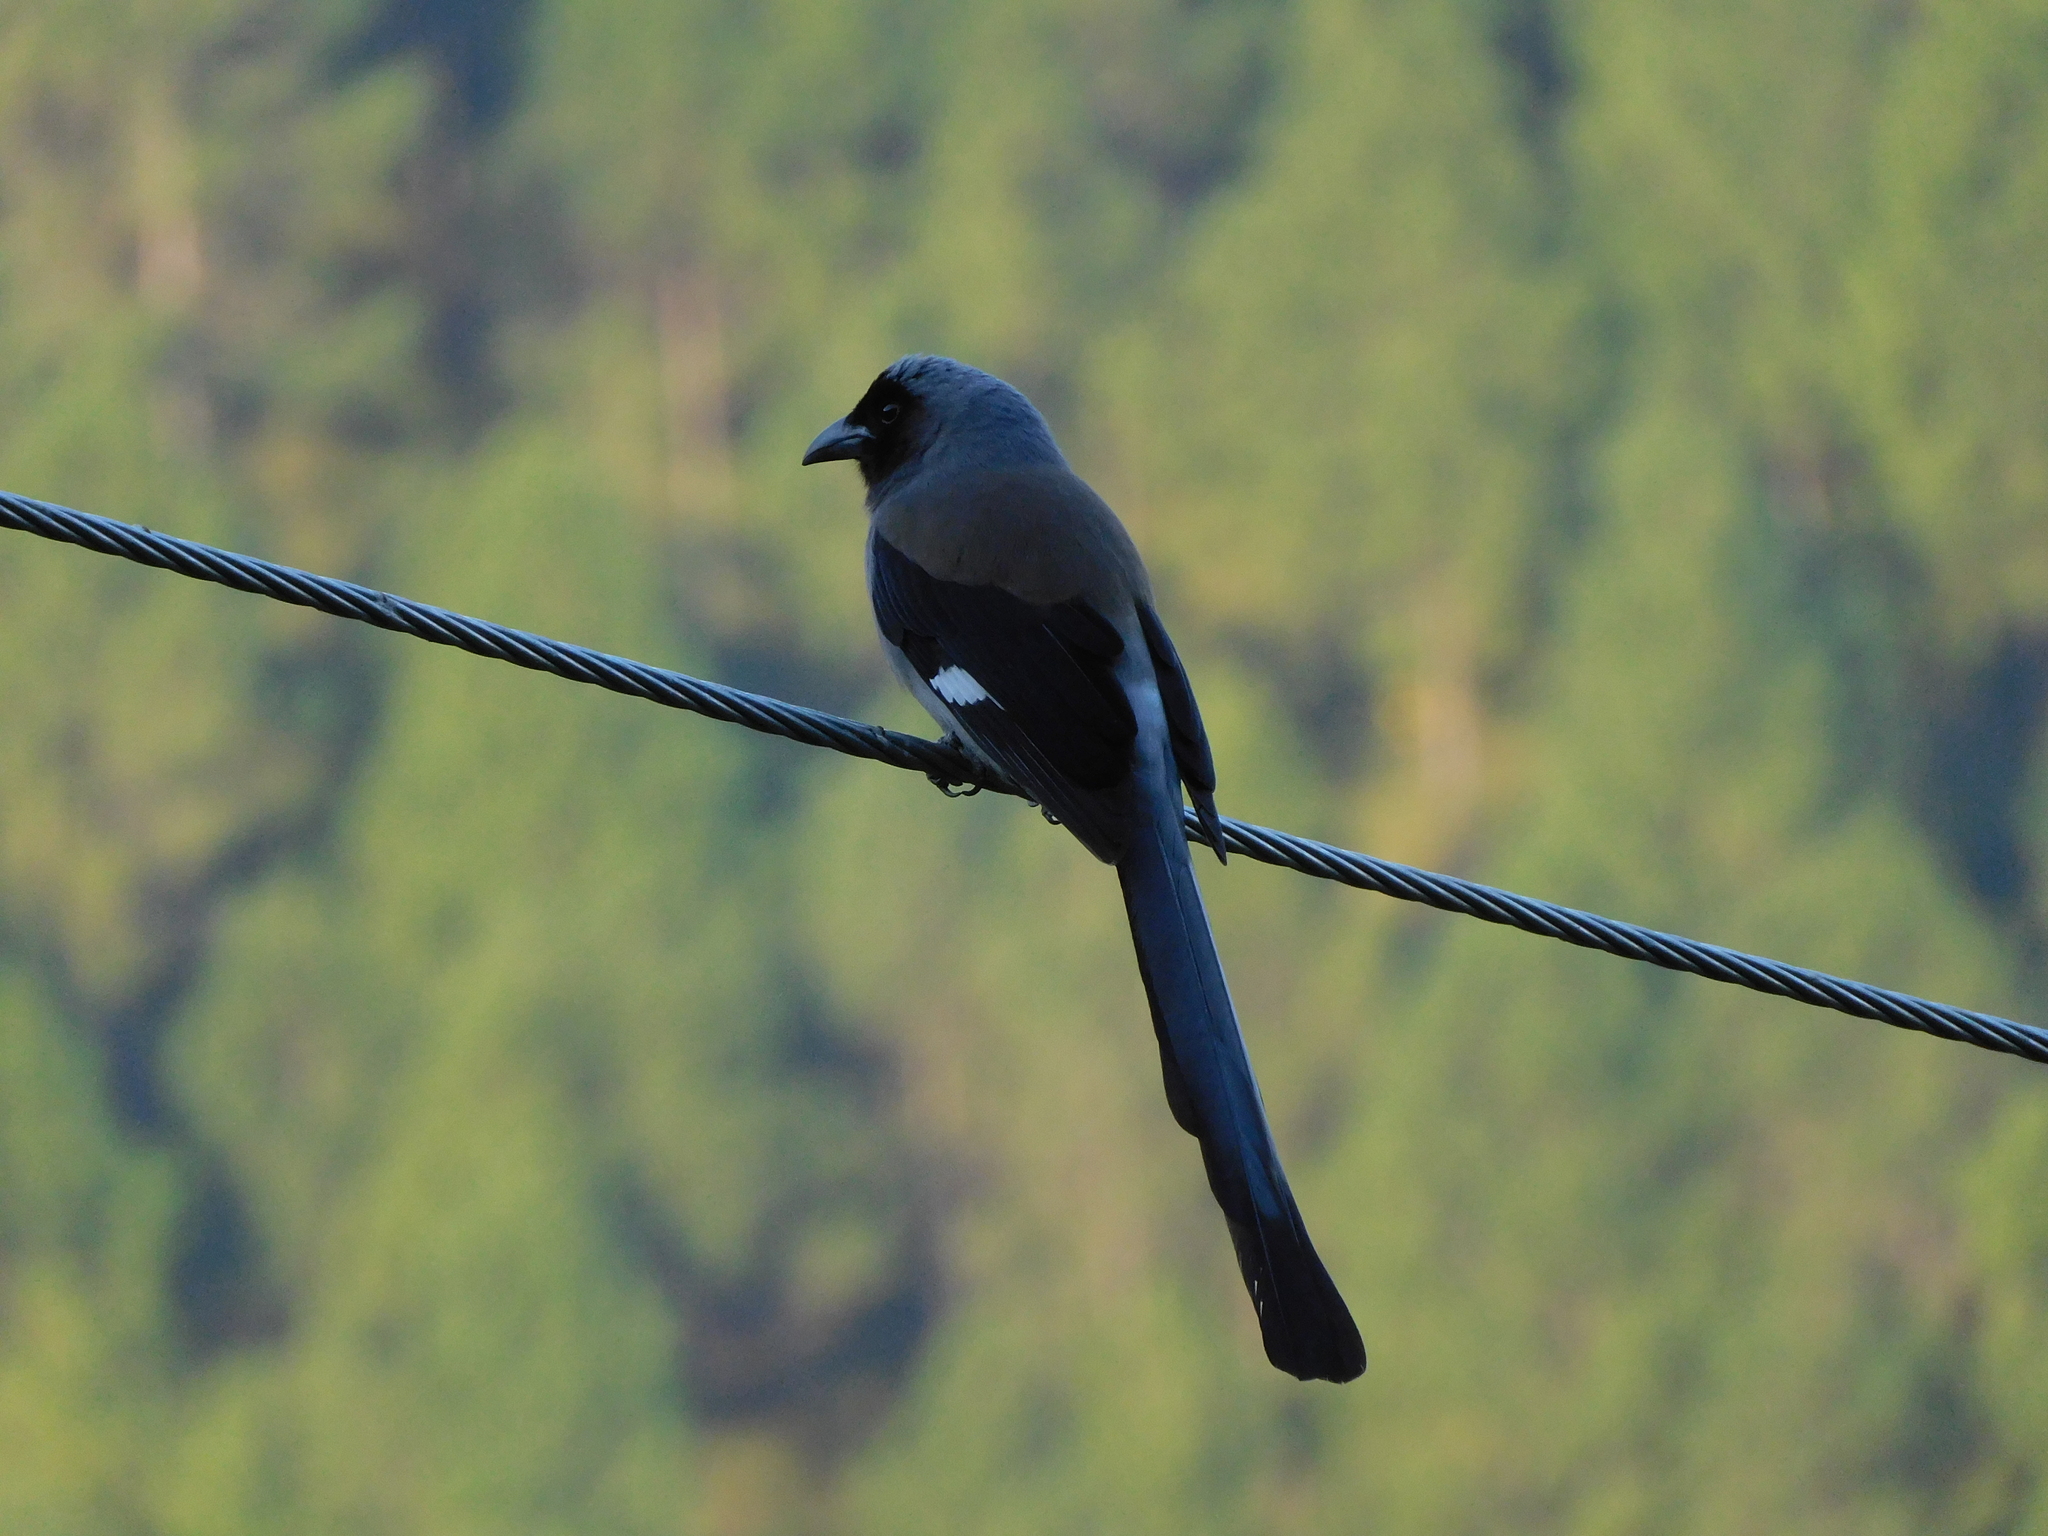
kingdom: Animalia
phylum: Chordata
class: Aves
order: Passeriformes
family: Corvidae
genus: Dendrocitta
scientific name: Dendrocitta formosae
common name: Grey treepie
